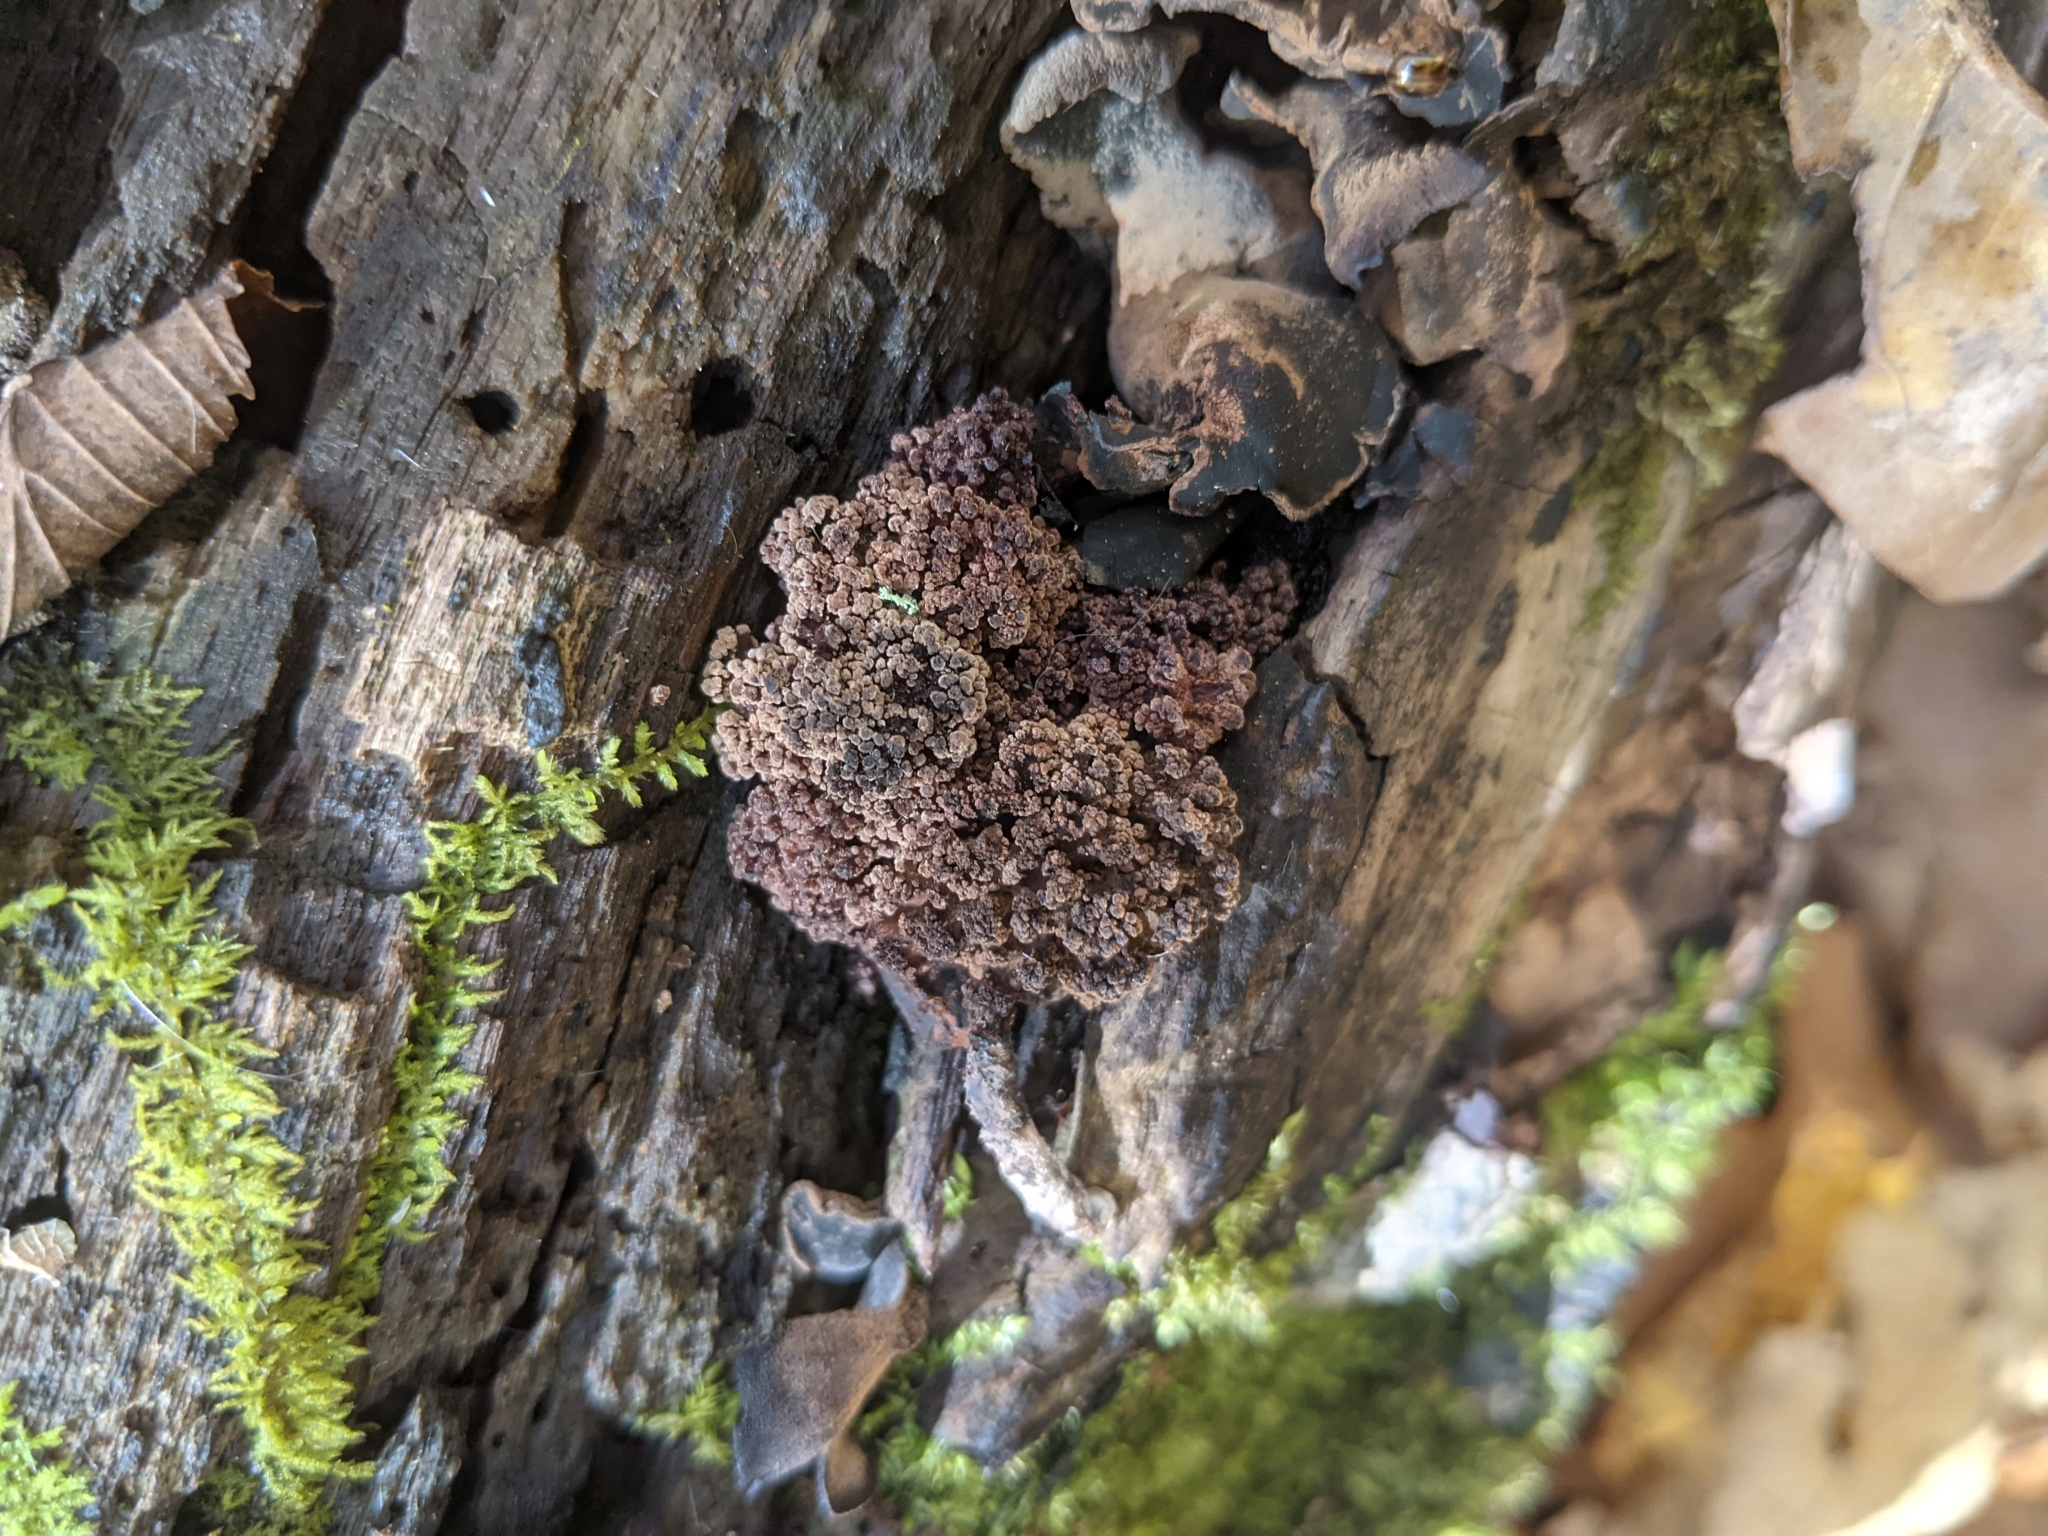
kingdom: Fungi
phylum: Ascomycota
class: Leotiomycetes
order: Helotiales
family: Cordieritidaceae
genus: Diplocarpa
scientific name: Diplocarpa irregularis
